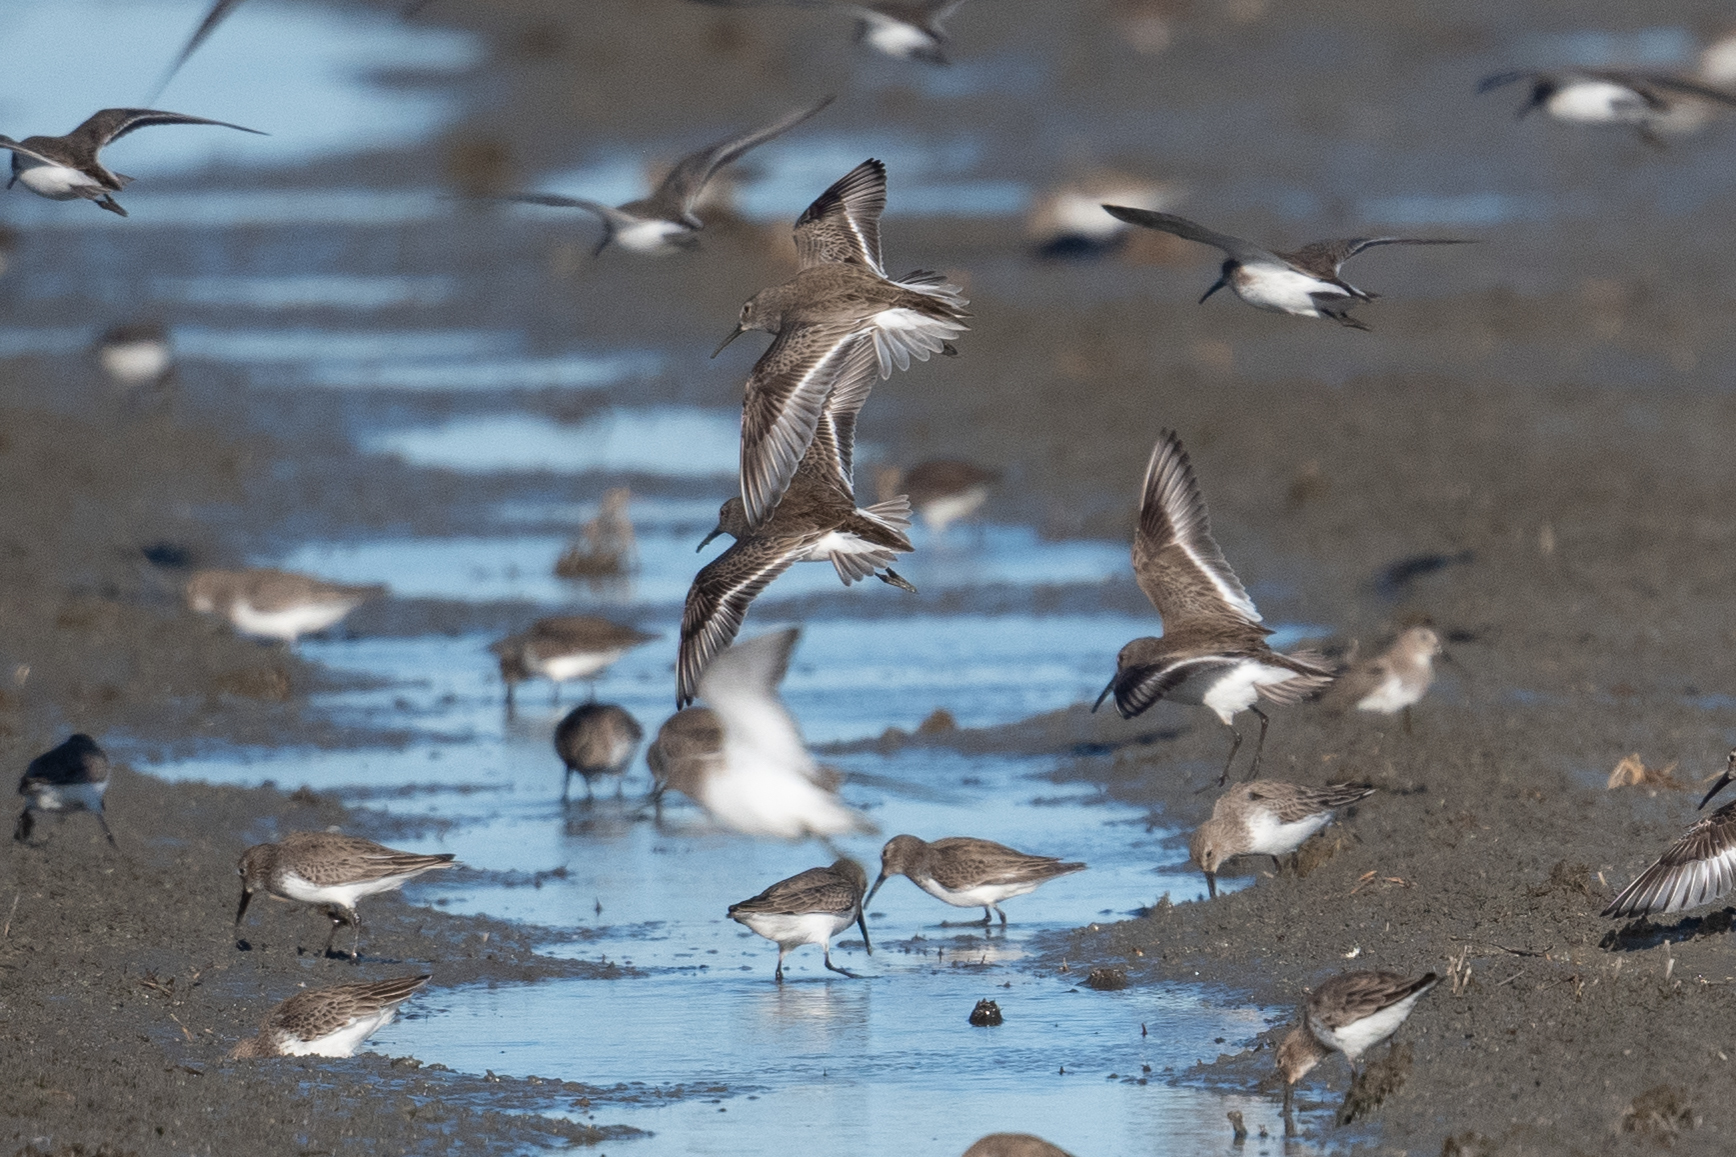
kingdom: Animalia
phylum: Chordata
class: Aves
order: Charadriiformes
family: Scolopacidae
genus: Calidris
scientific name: Calidris alpina
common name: Dunlin
